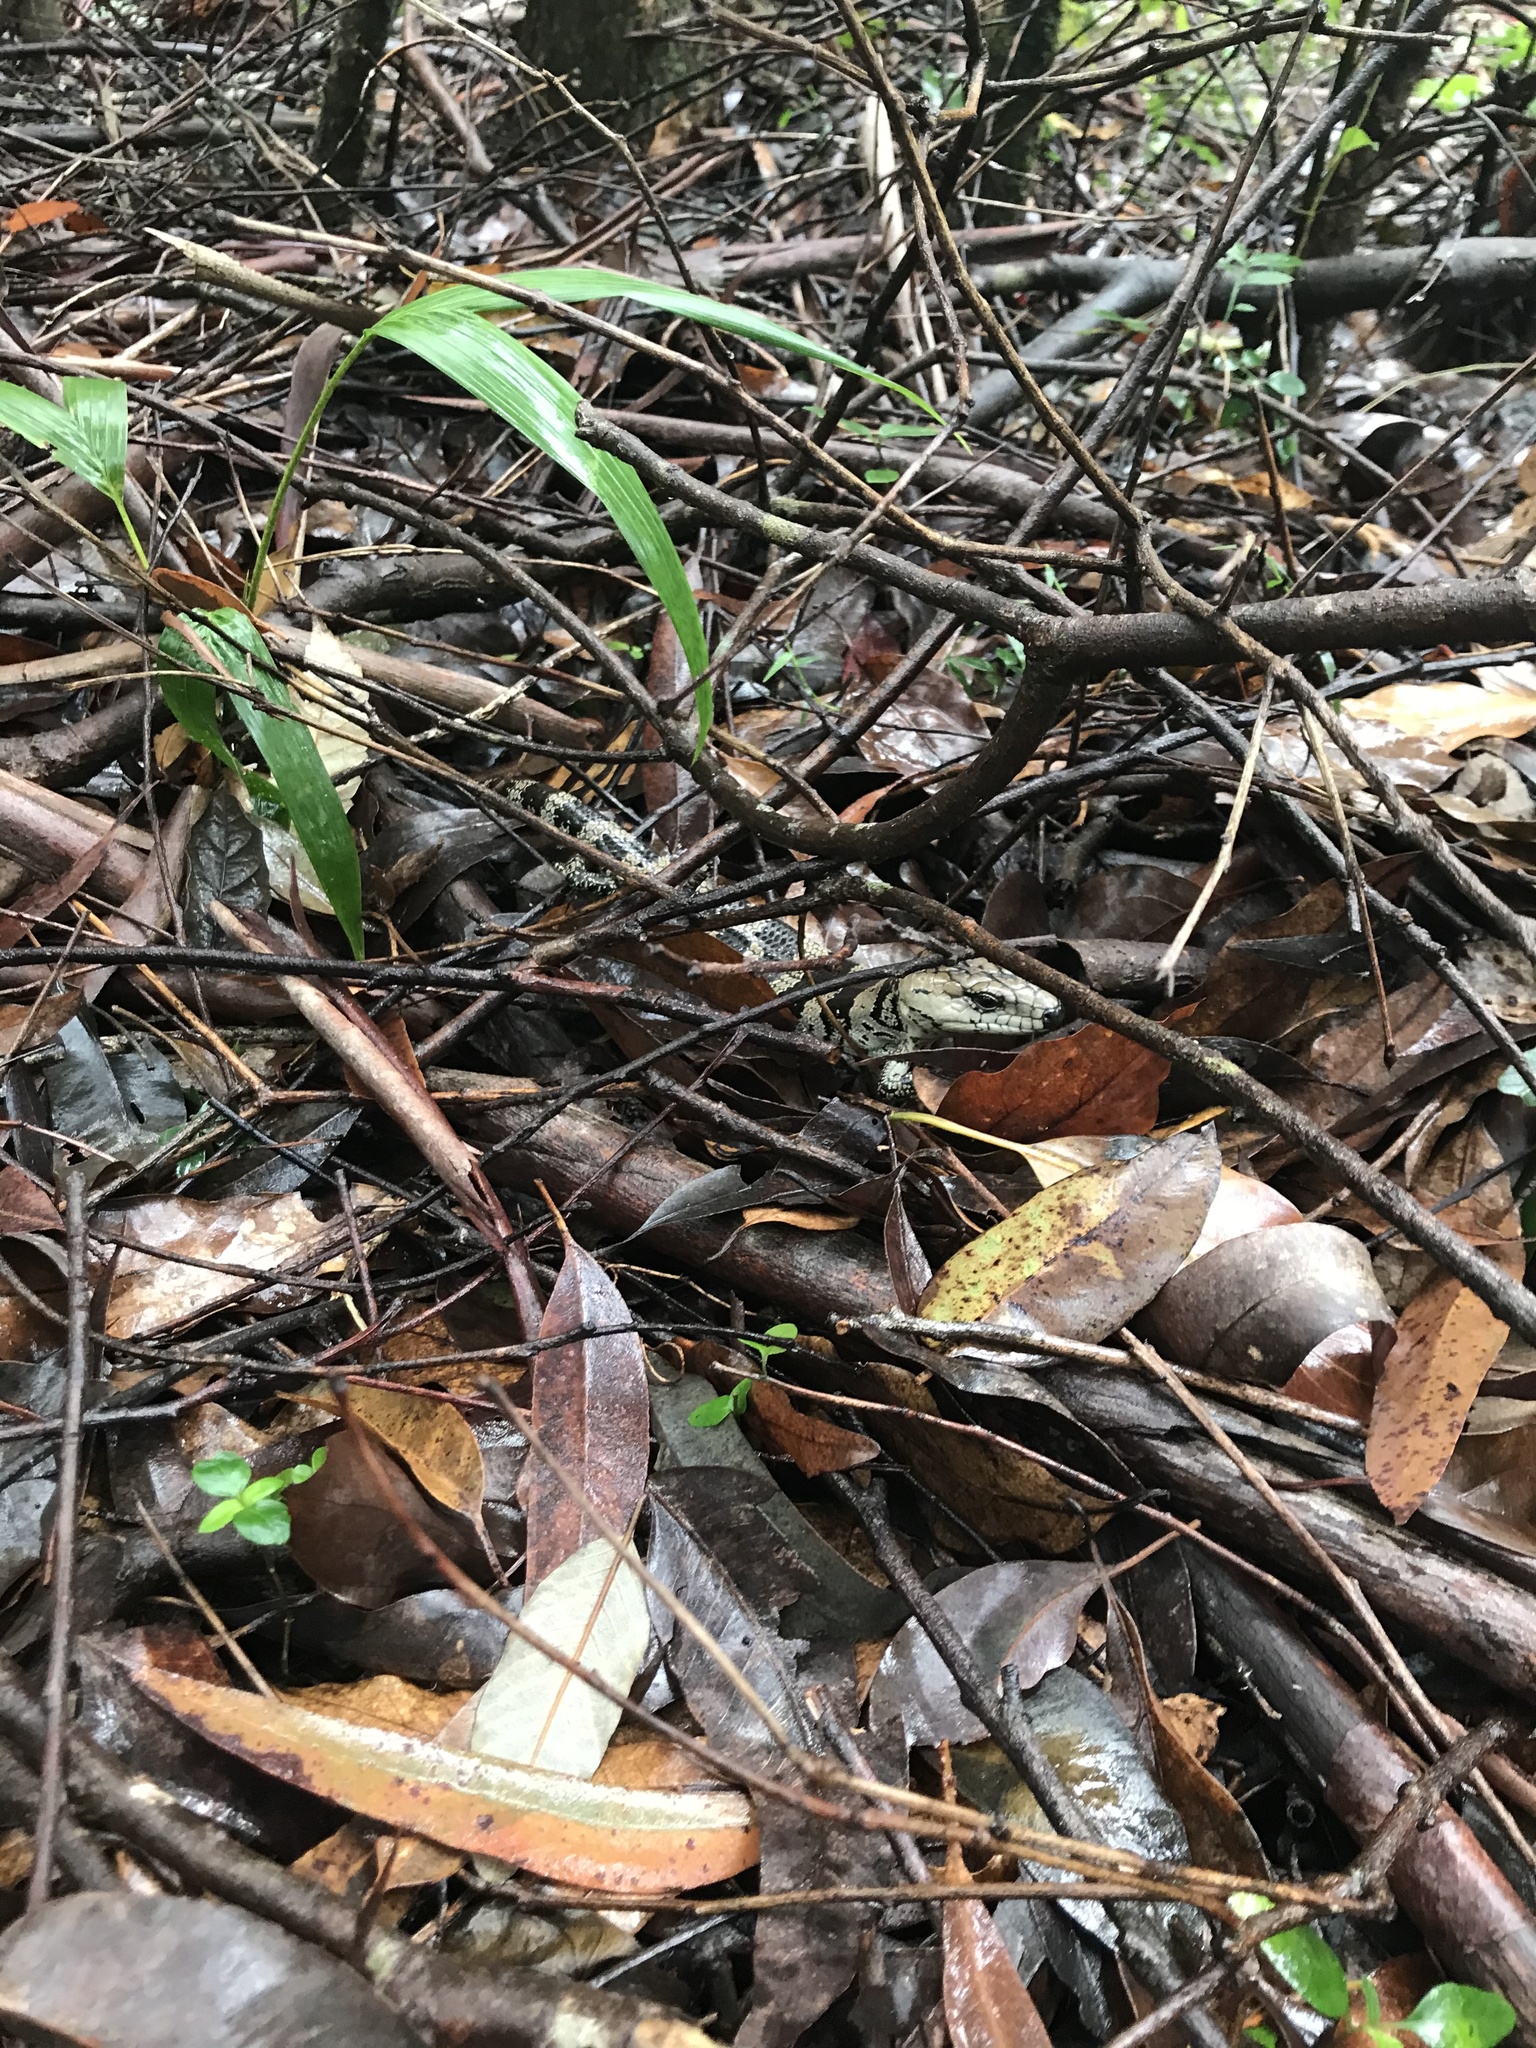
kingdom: Animalia
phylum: Chordata
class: Squamata
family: Scincidae
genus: Cyclodomorphus
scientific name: Cyclodomorphus gerrardii
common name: Pink-tongued lizard
